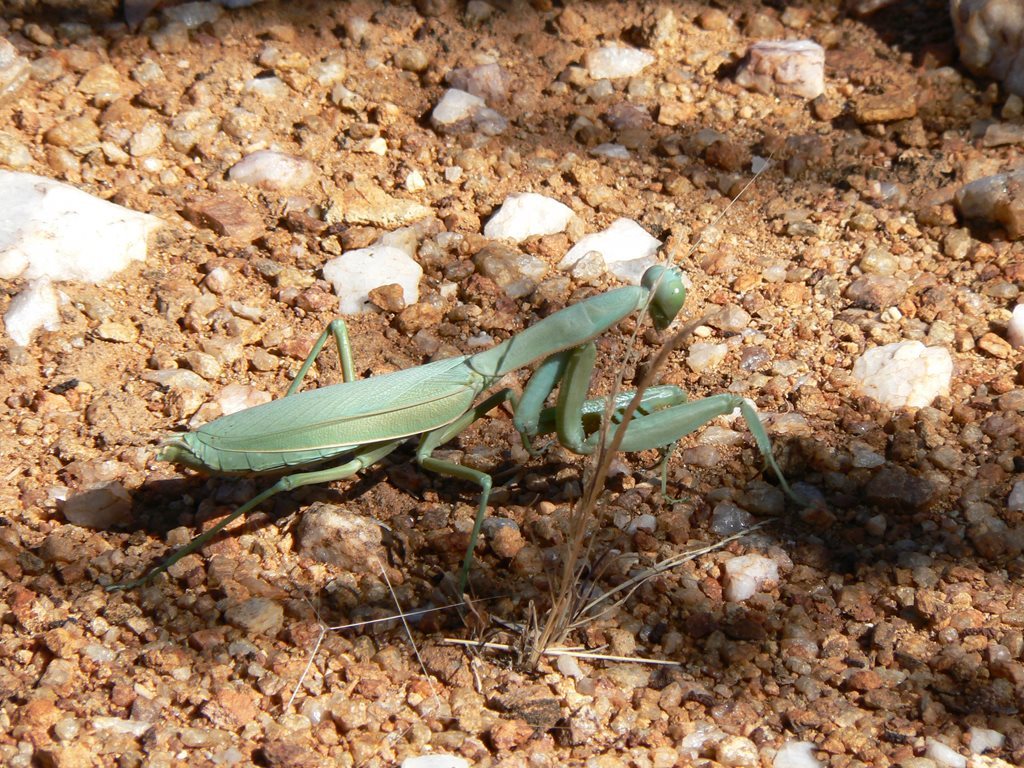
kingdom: Animalia
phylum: Arthropoda
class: Insecta
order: Mantodea
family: Mantidae
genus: Trachymantis
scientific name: Trachymantis obesa
